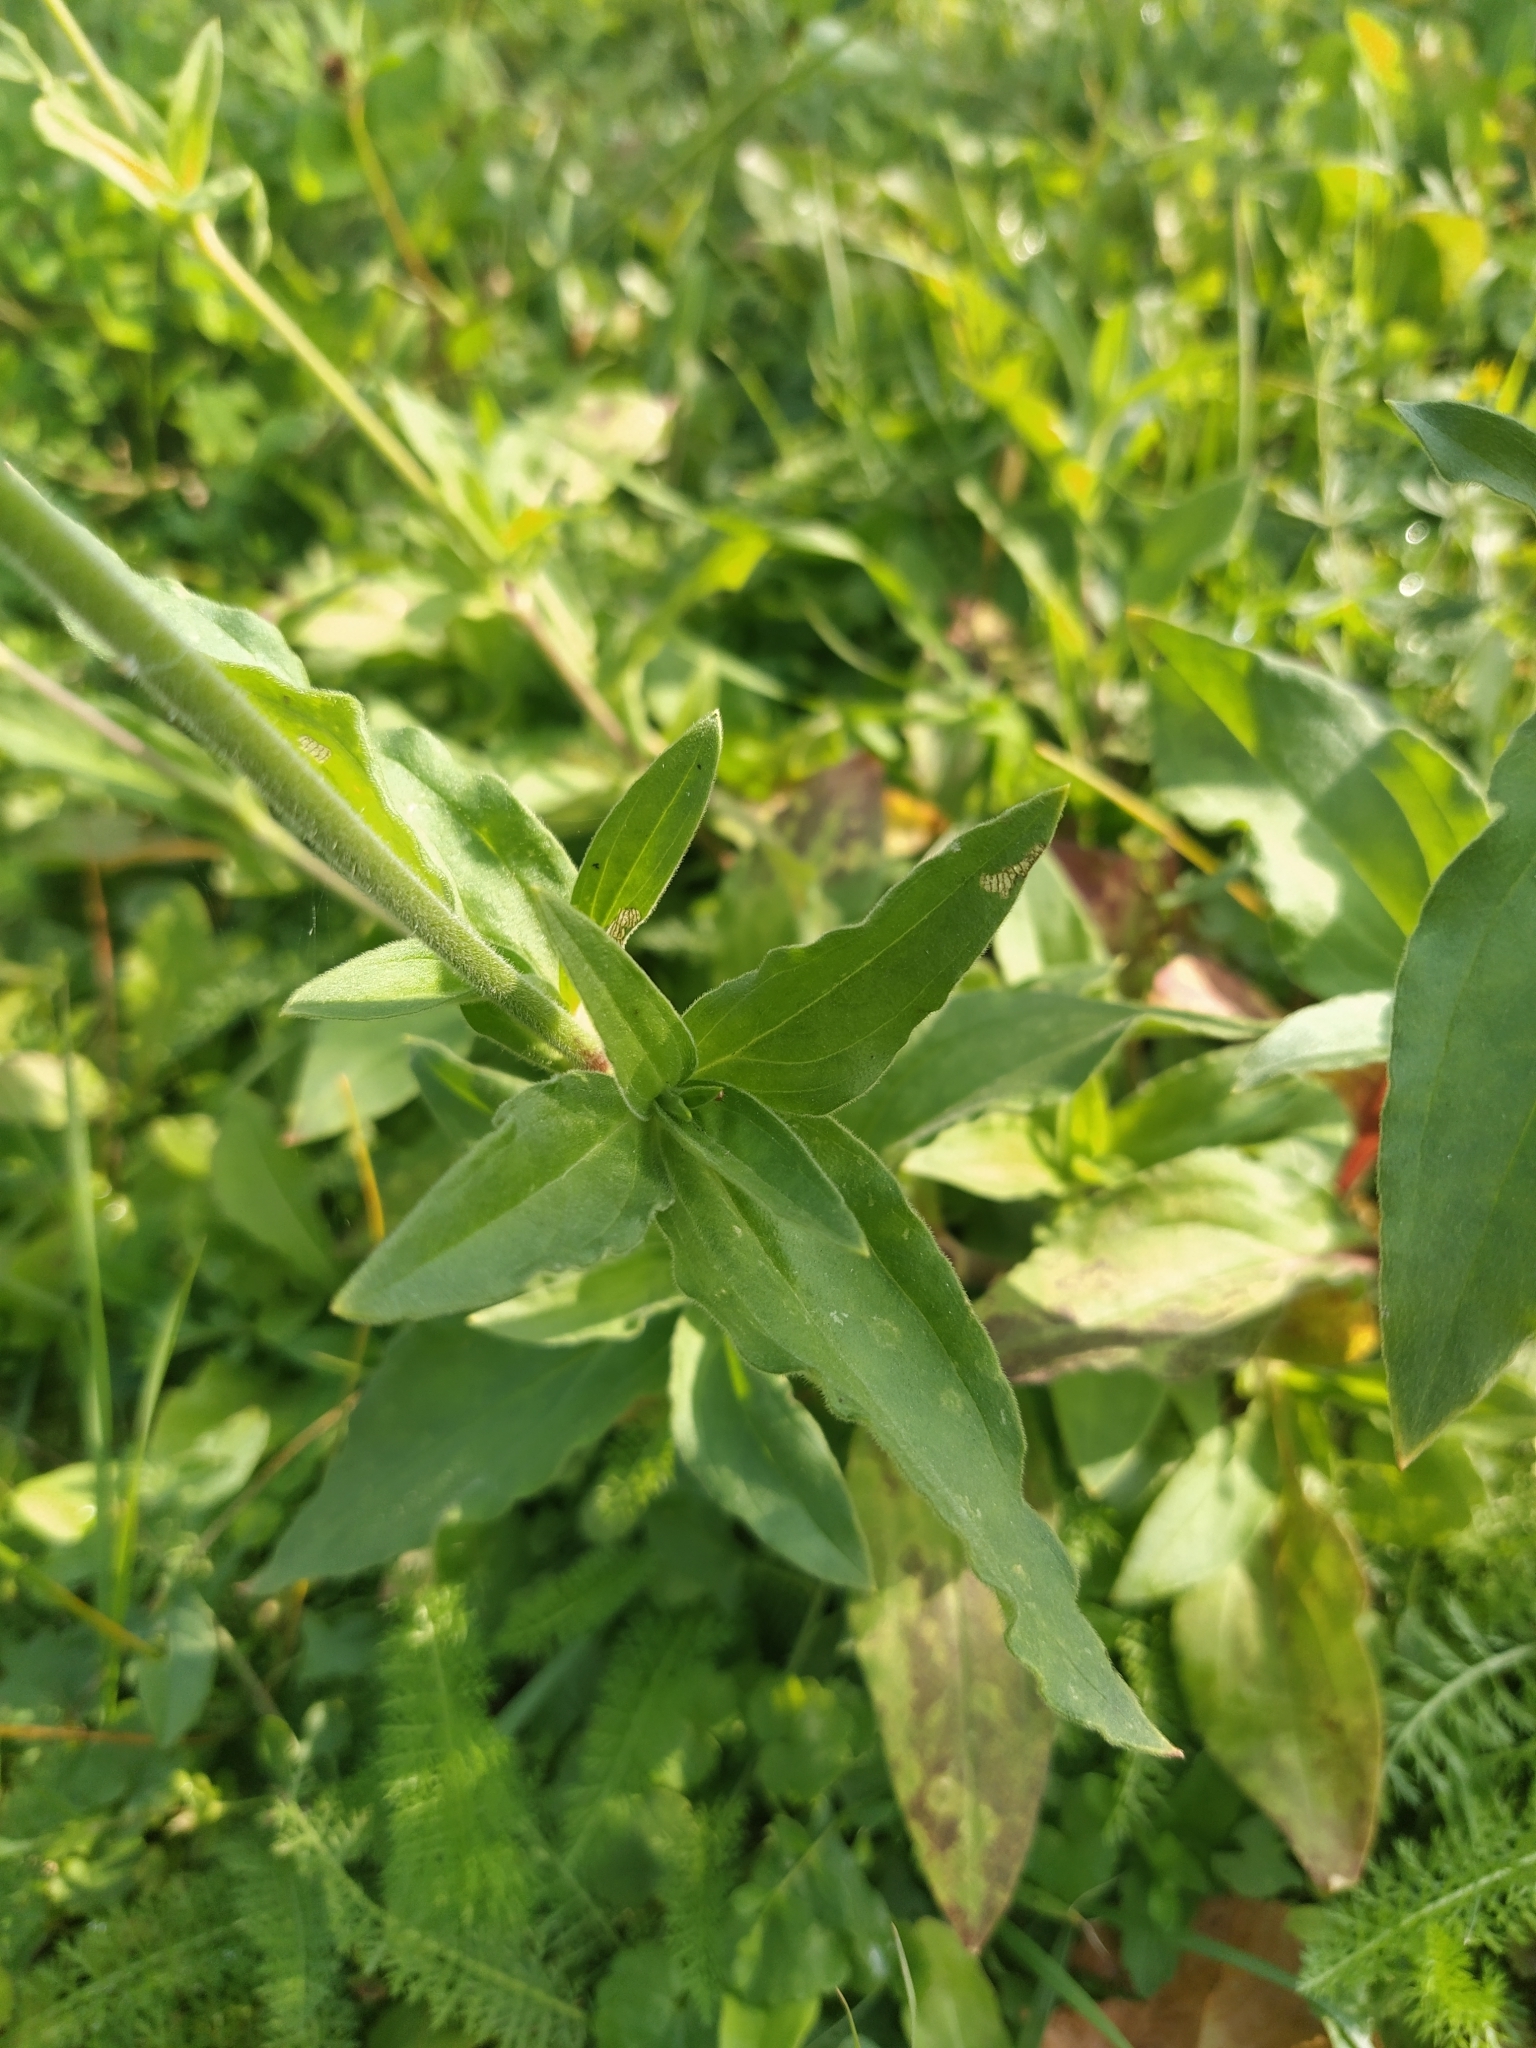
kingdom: Plantae
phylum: Tracheophyta
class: Magnoliopsida
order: Caryophyllales
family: Caryophyllaceae
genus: Silene
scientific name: Silene latifolia
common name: White campion
